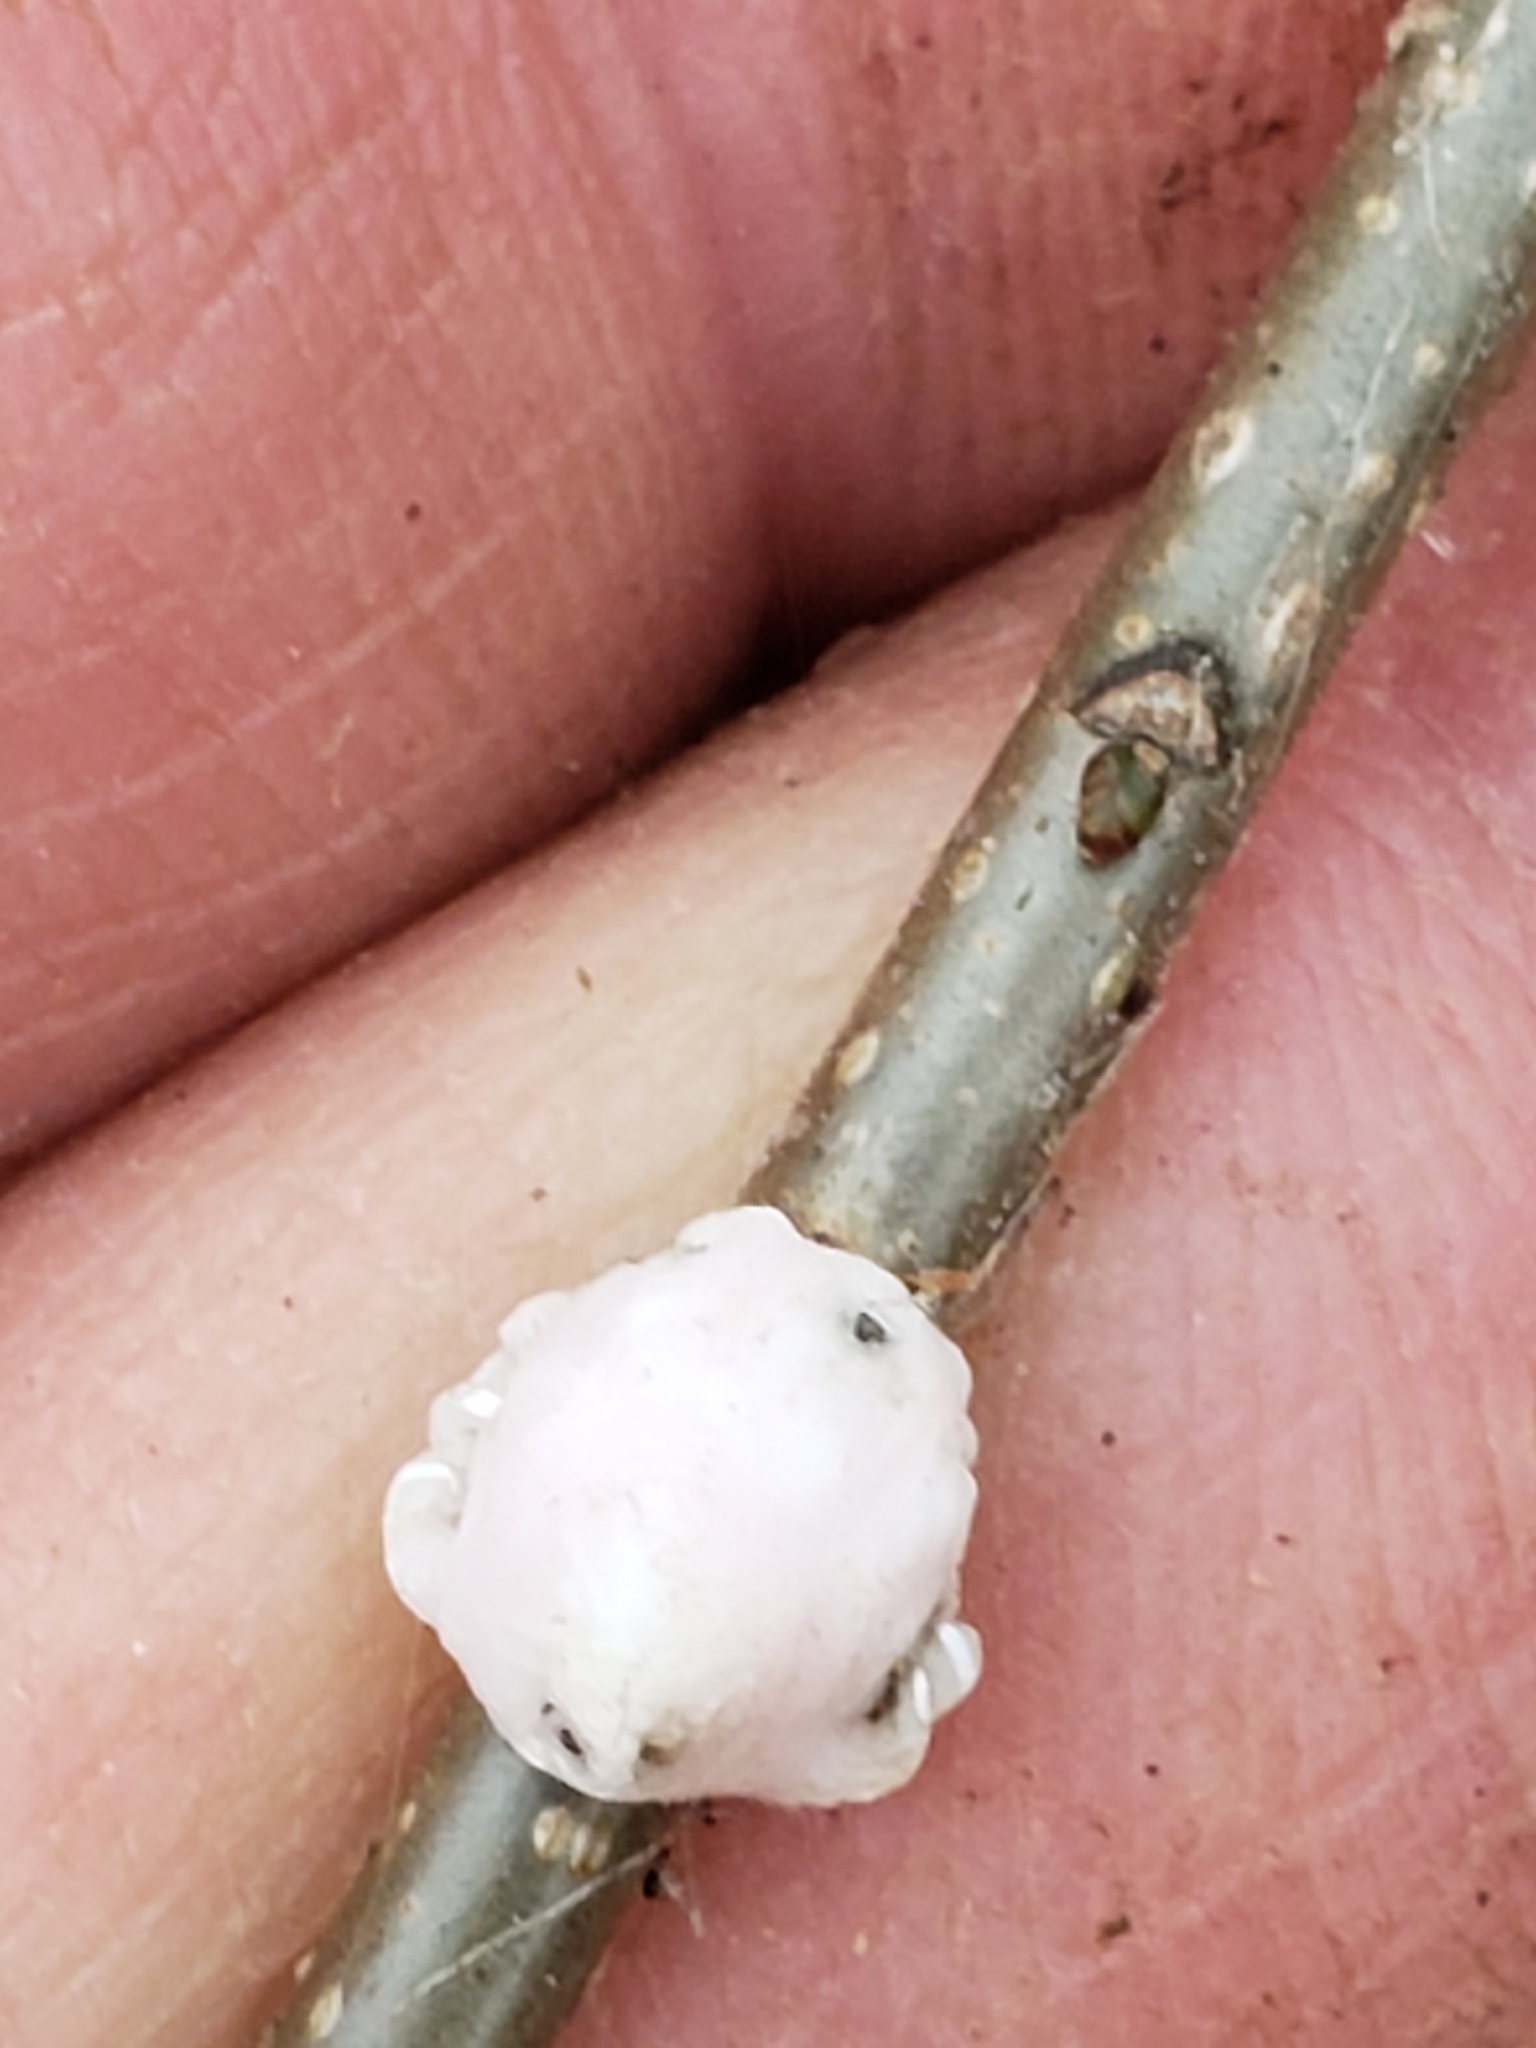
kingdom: Animalia
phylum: Arthropoda
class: Insecta
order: Hemiptera
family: Coccidae
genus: Ceroplastes
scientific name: Ceroplastes ceriferus
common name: Indian wax scale
